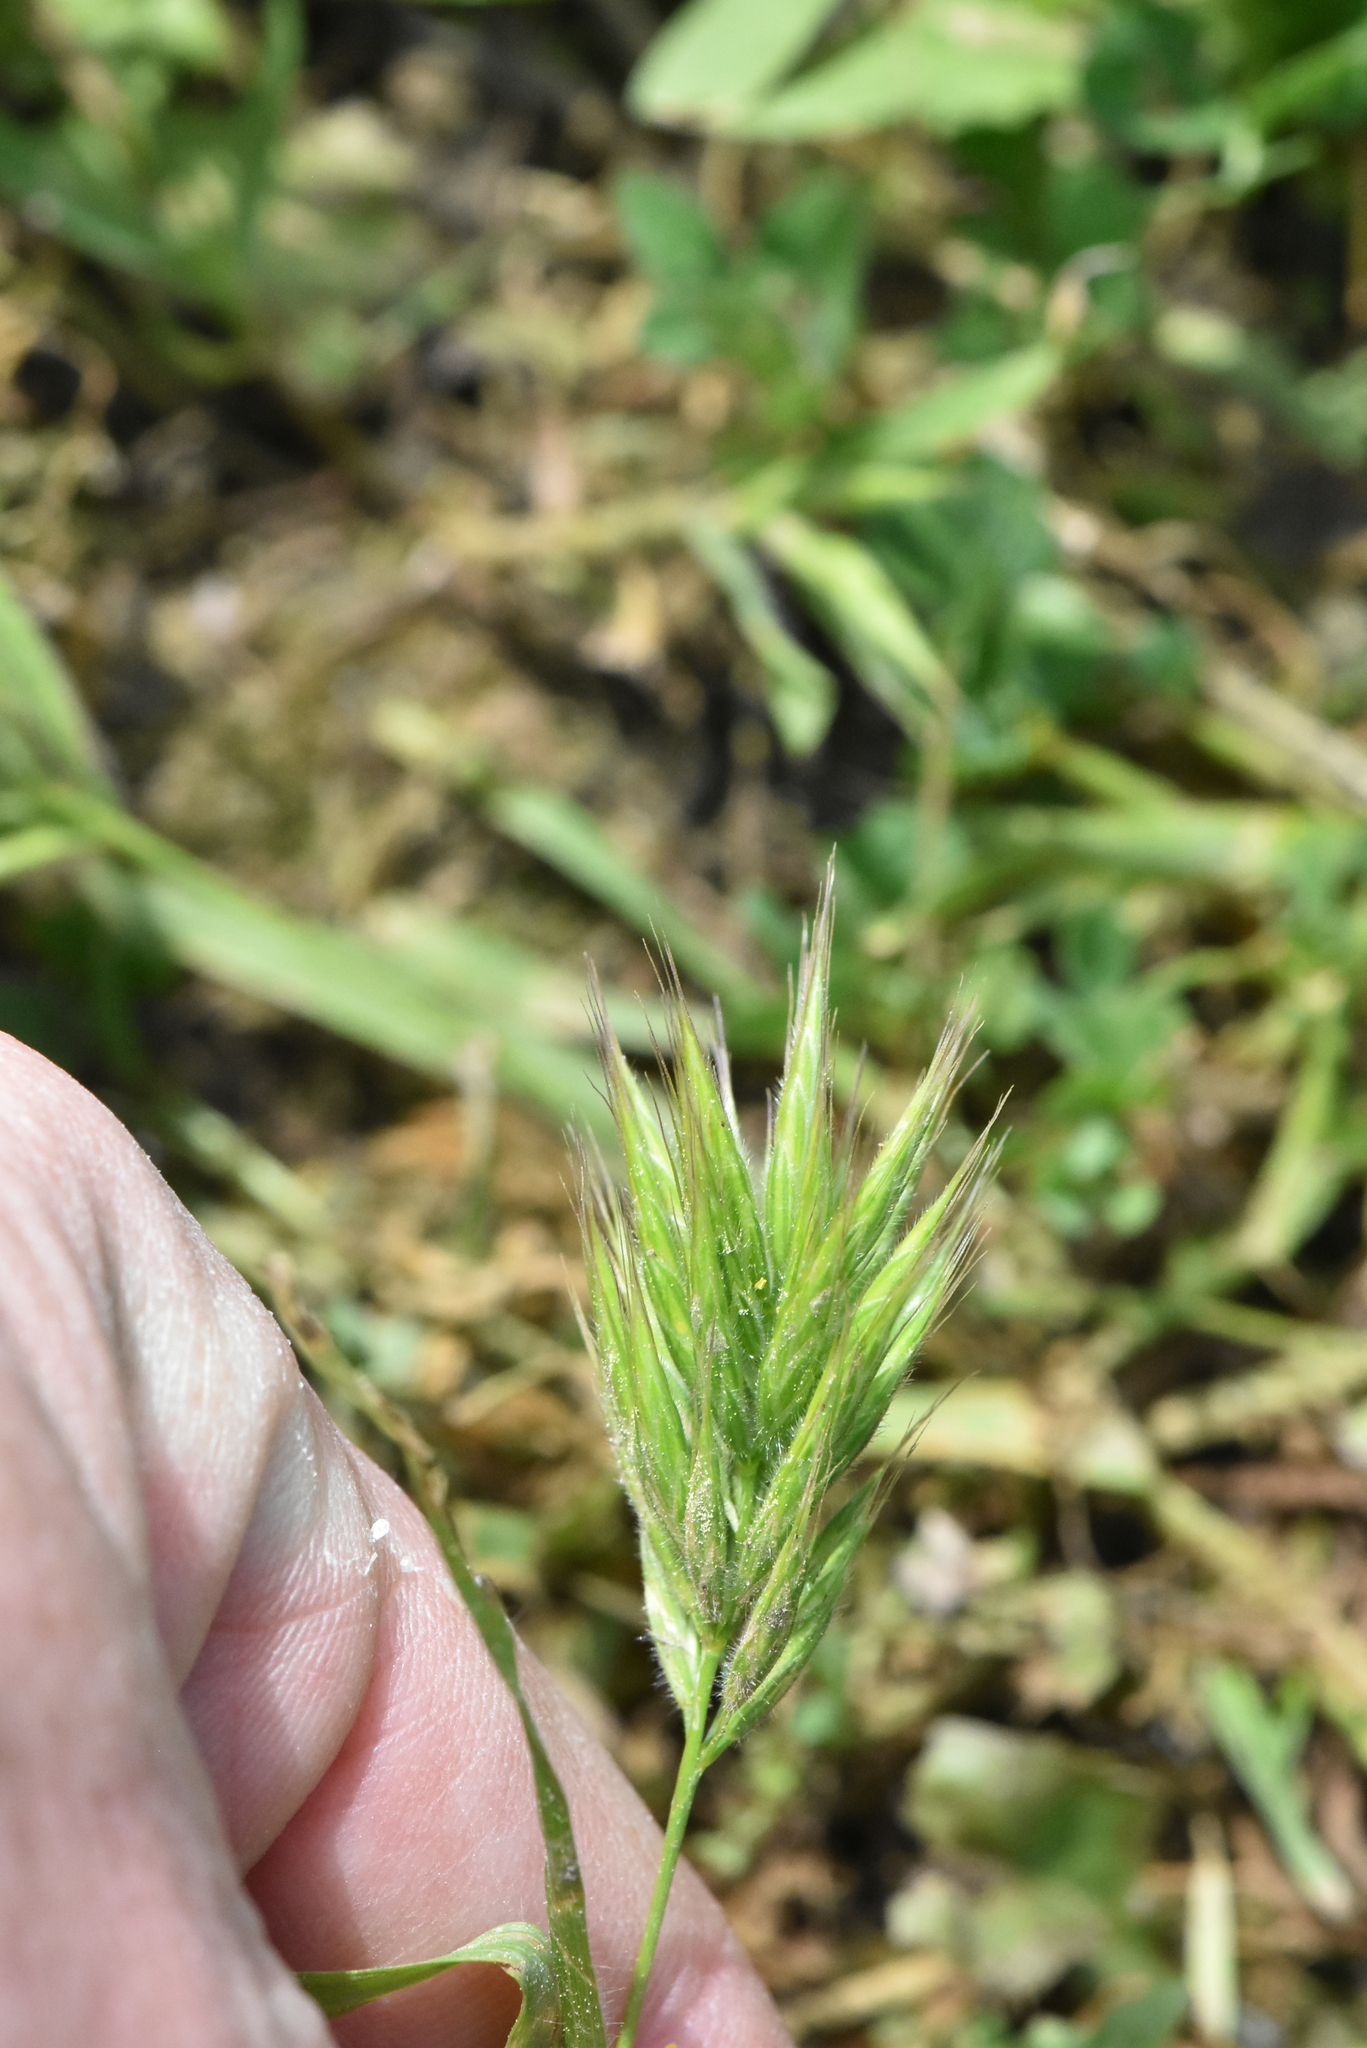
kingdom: Plantae
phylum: Tracheophyta
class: Liliopsida
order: Poales
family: Poaceae
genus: Bromus
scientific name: Bromus hordeaceus
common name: Soft brome
